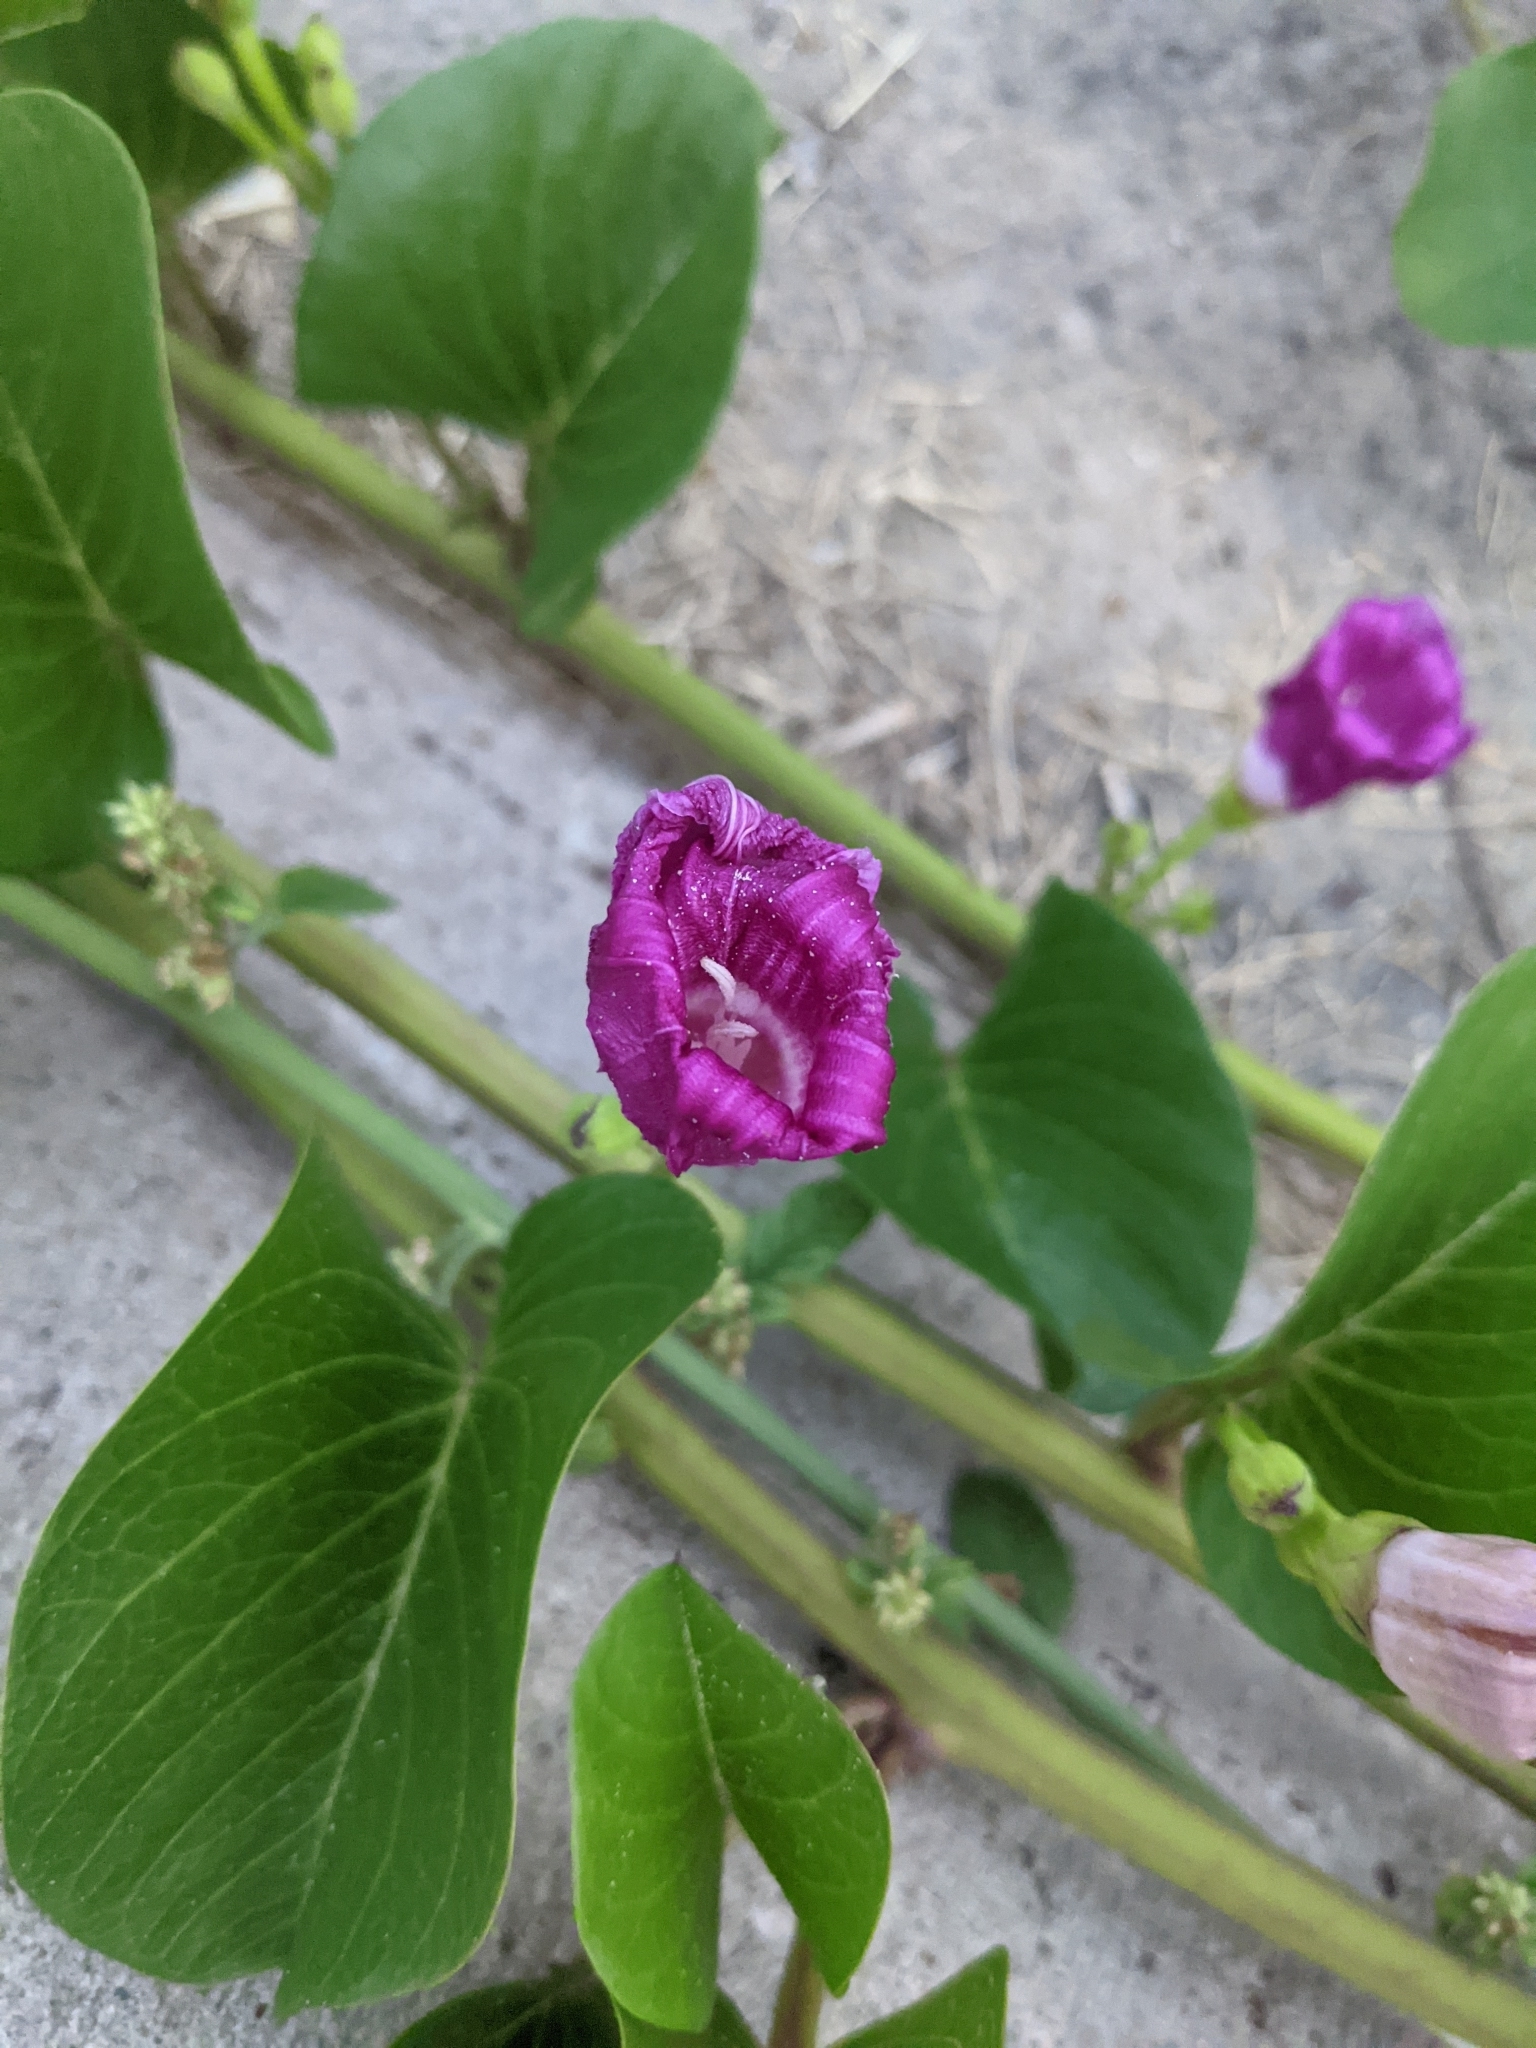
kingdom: Plantae
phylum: Tracheophyta
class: Magnoliopsida
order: Solanales
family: Convolvulaceae
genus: Ipomoea
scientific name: Ipomoea pes-caprae
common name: Beach morning glory
